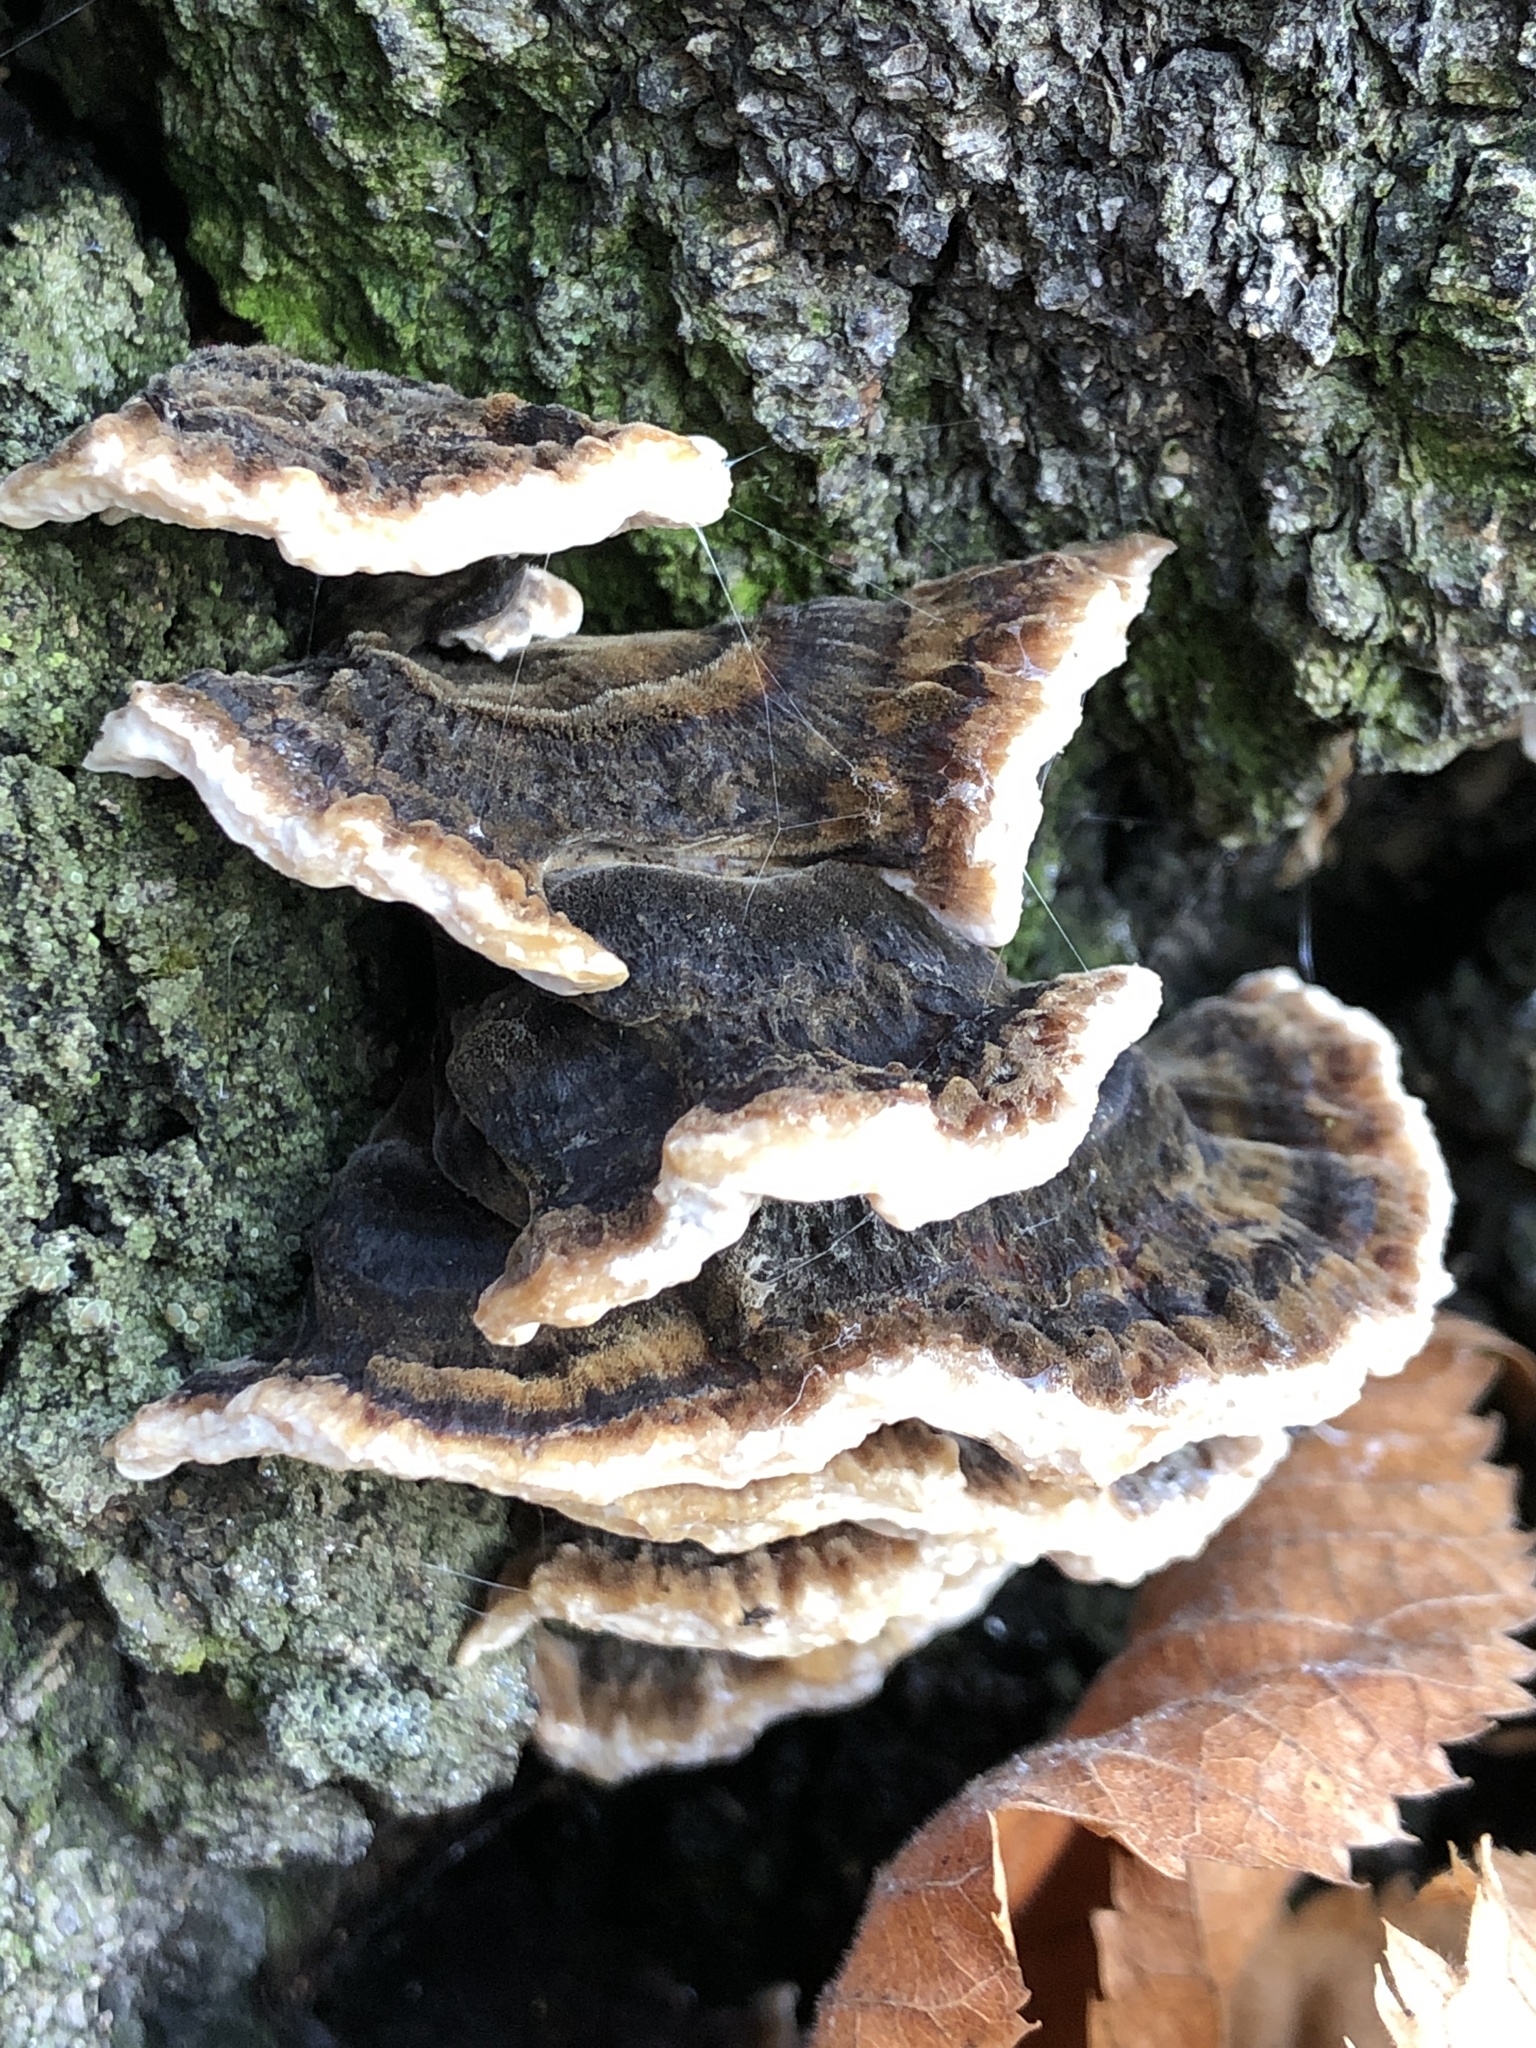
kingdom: Fungi
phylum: Basidiomycota
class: Agaricomycetes
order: Polyporales
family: Phanerochaetaceae
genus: Bjerkandera
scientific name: Bjerkandera adusta
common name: Smoky bracket
